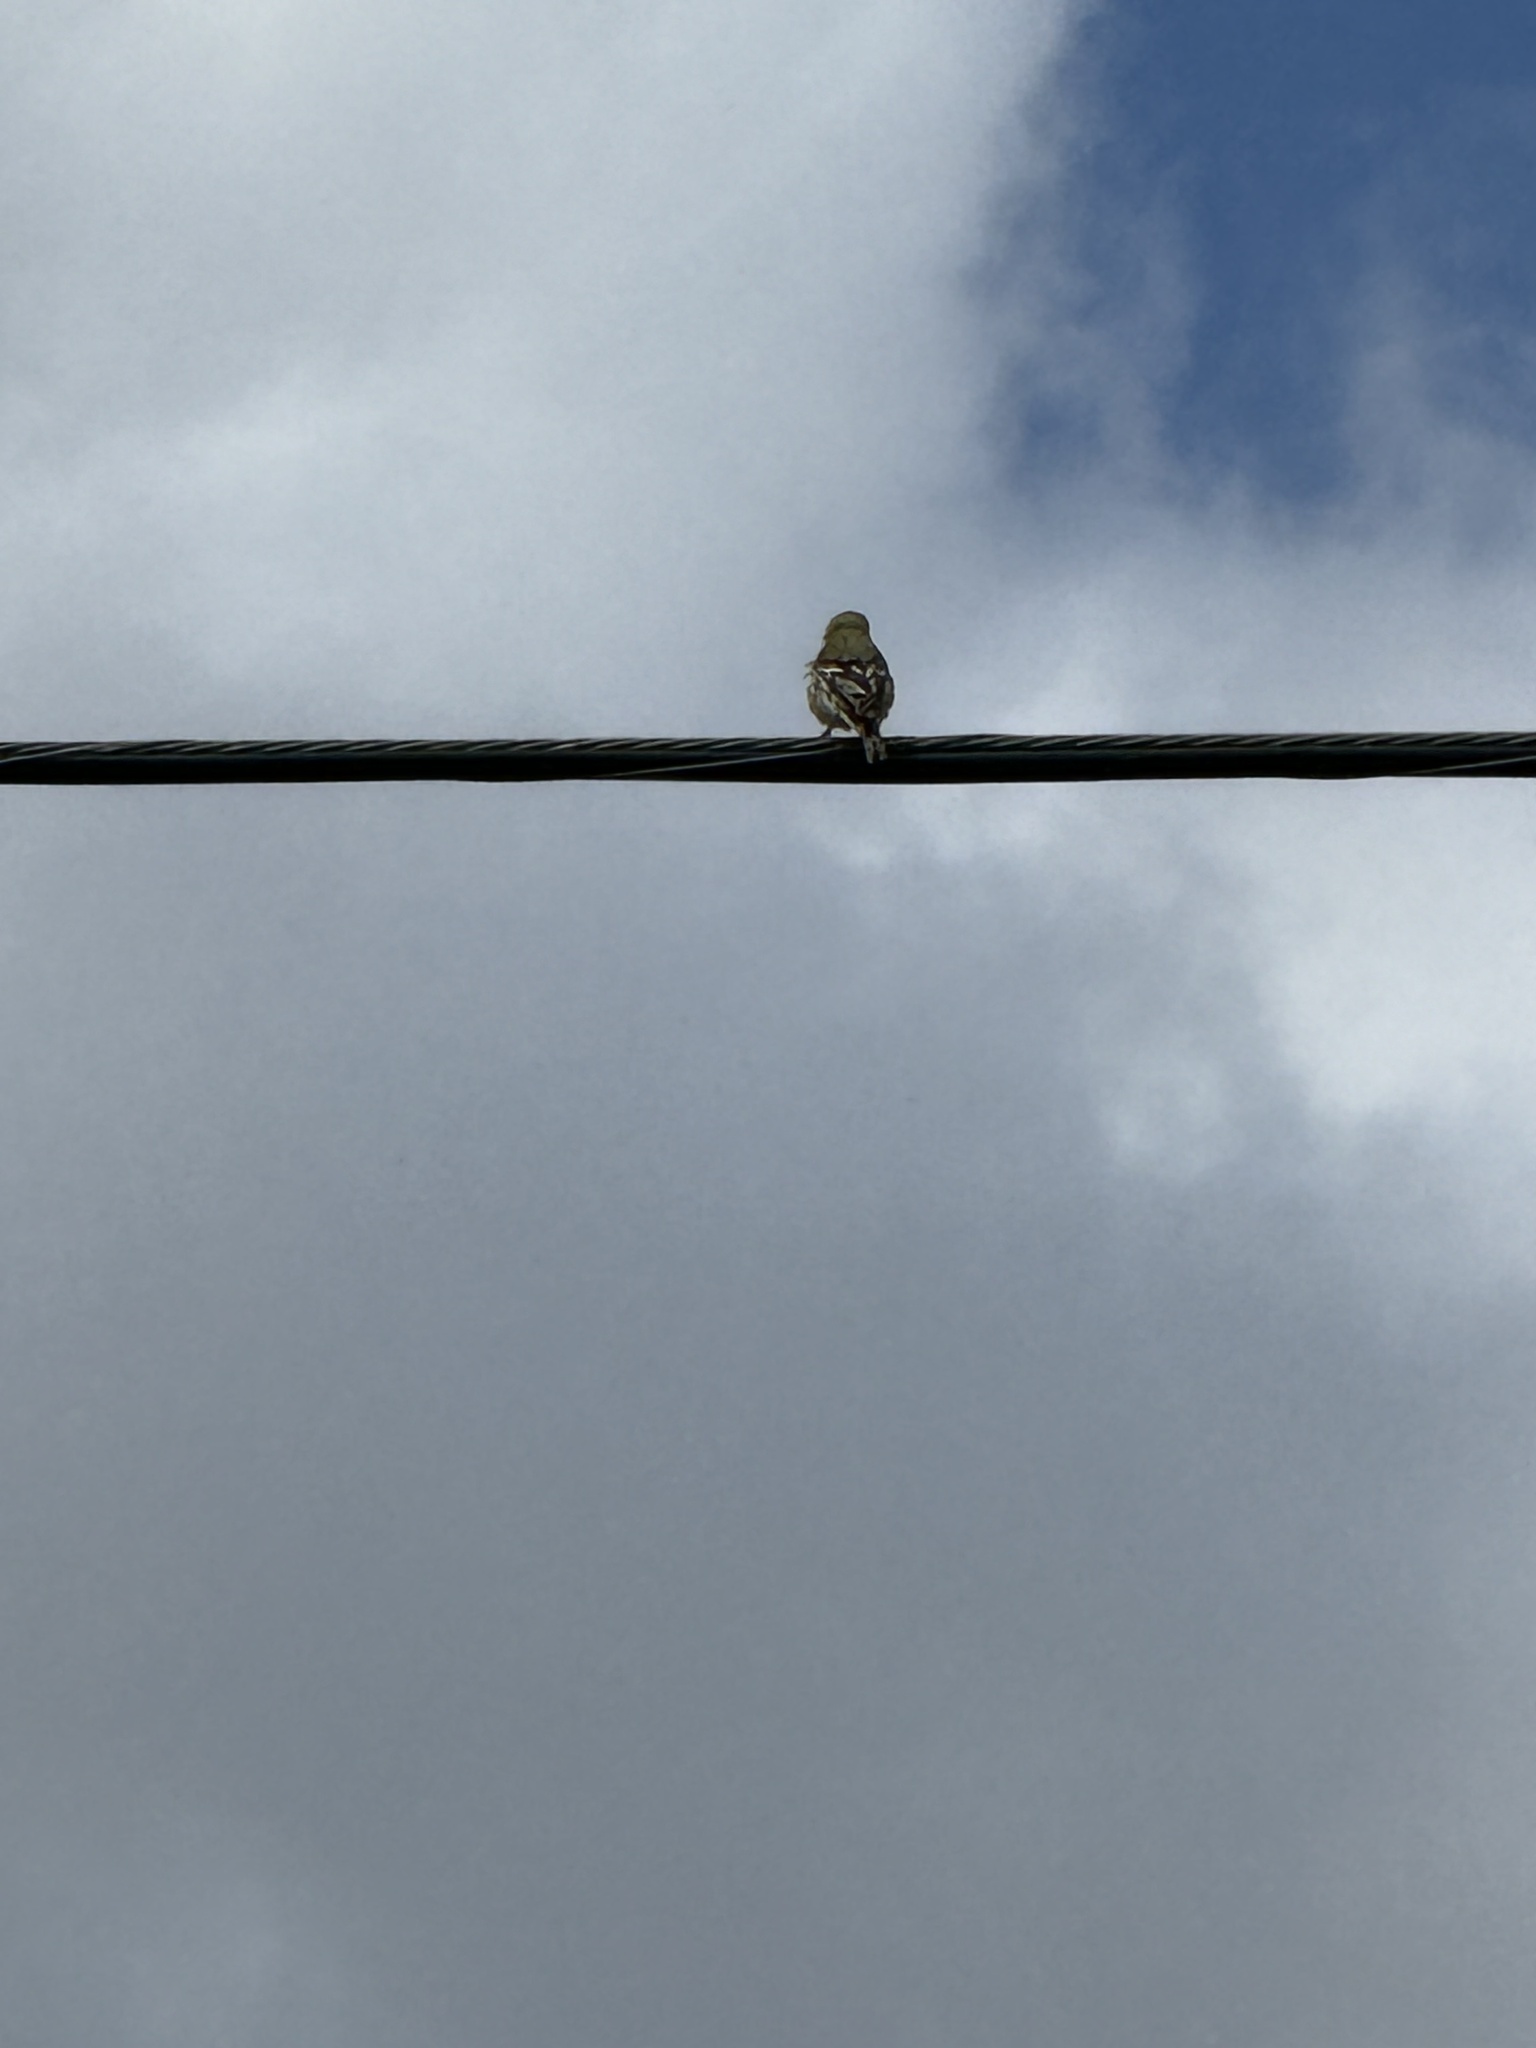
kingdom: Animalia
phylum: Chordata
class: Aves
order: Passeriformes
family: Fringillidae
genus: Spinus
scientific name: Spinus psaltria
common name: Lesser goldfinch
